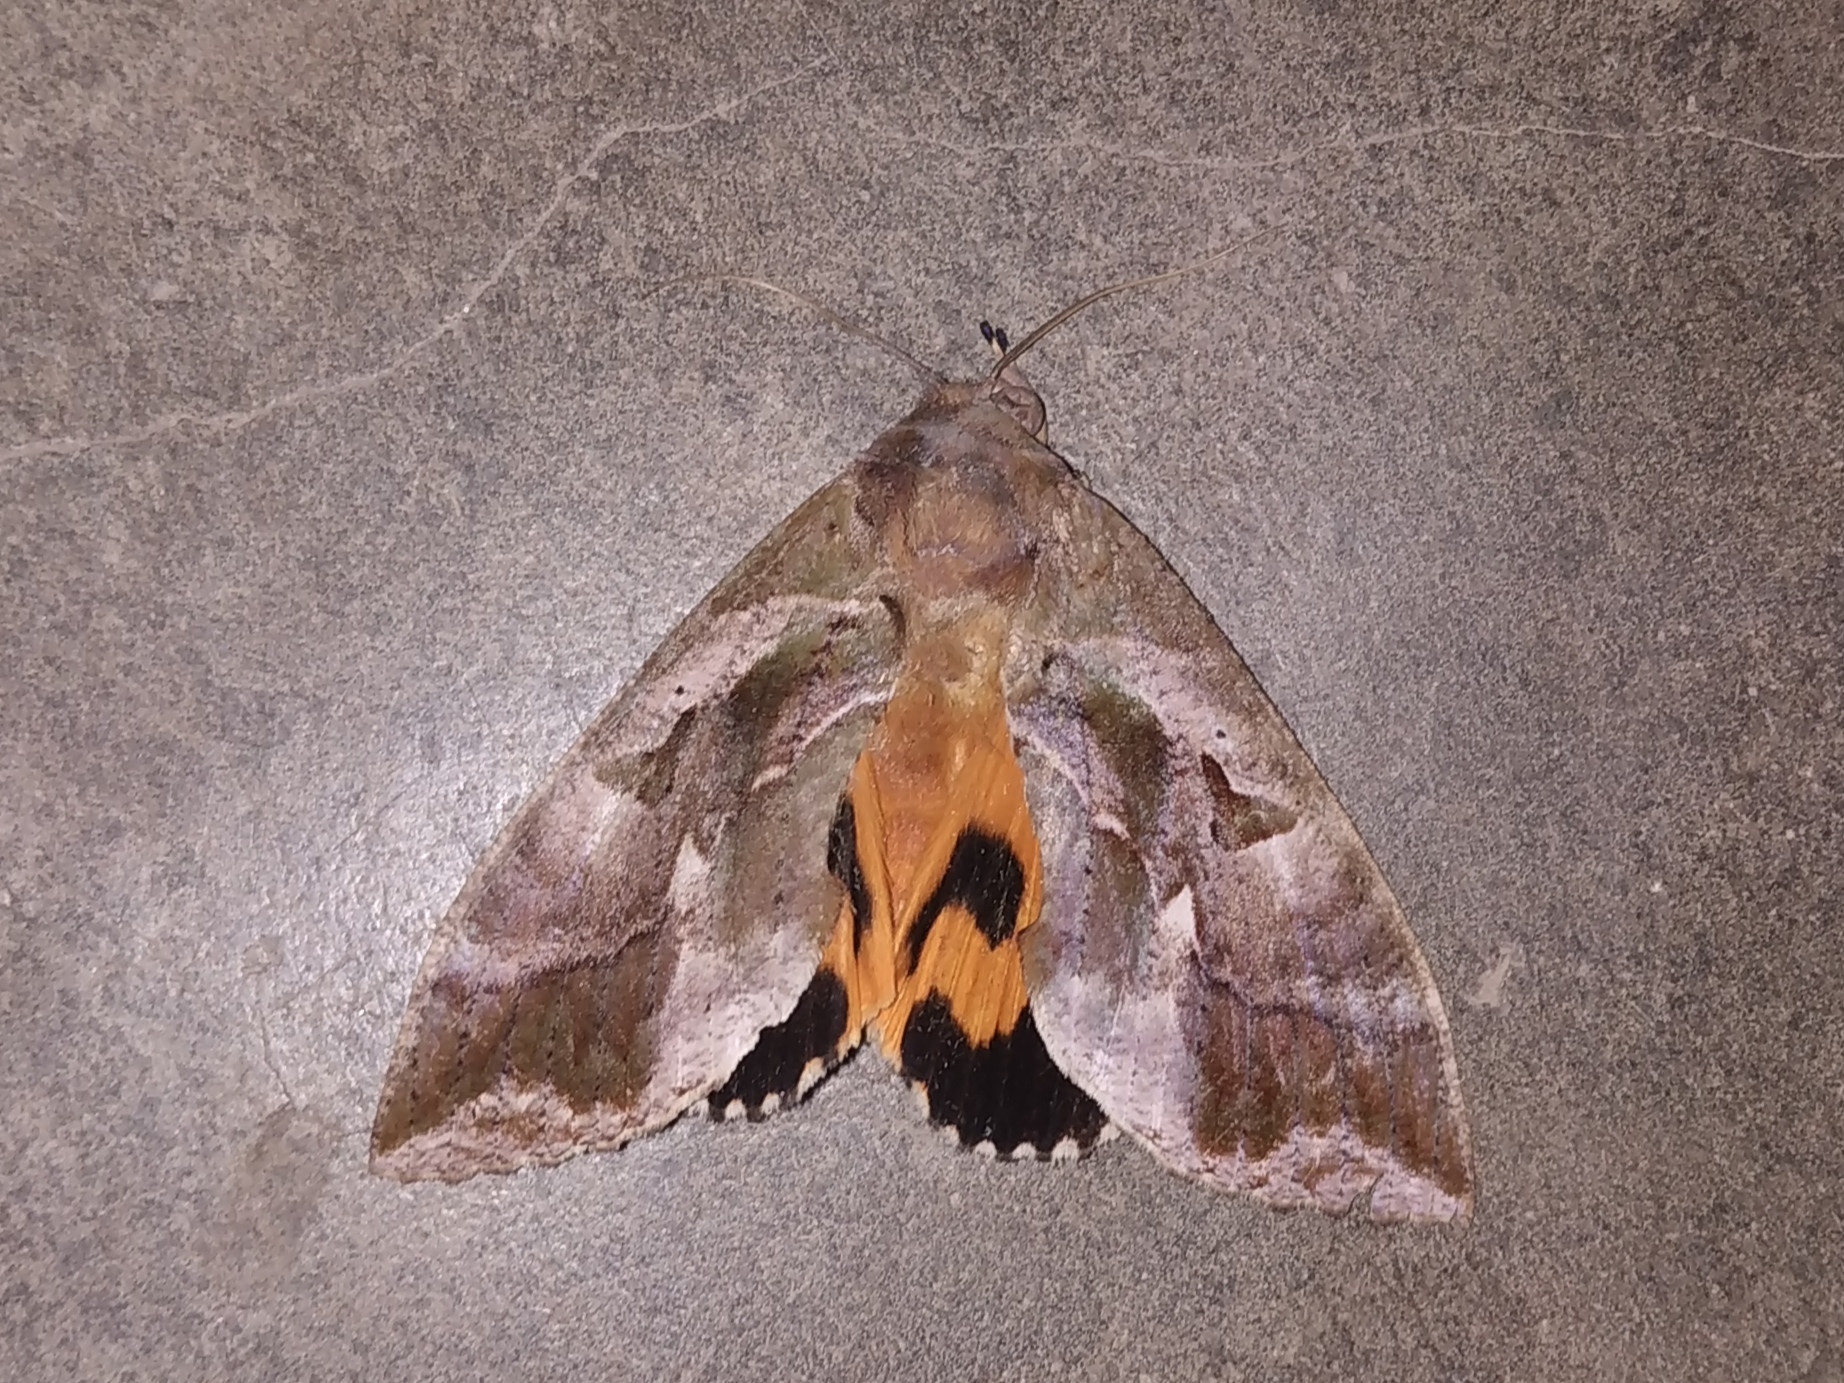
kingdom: Animalia
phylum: Arthropoda
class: Insecta
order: Lepidoptera
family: Erebidae
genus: Eudocima
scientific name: Eudocima phalonia
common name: Wasp
